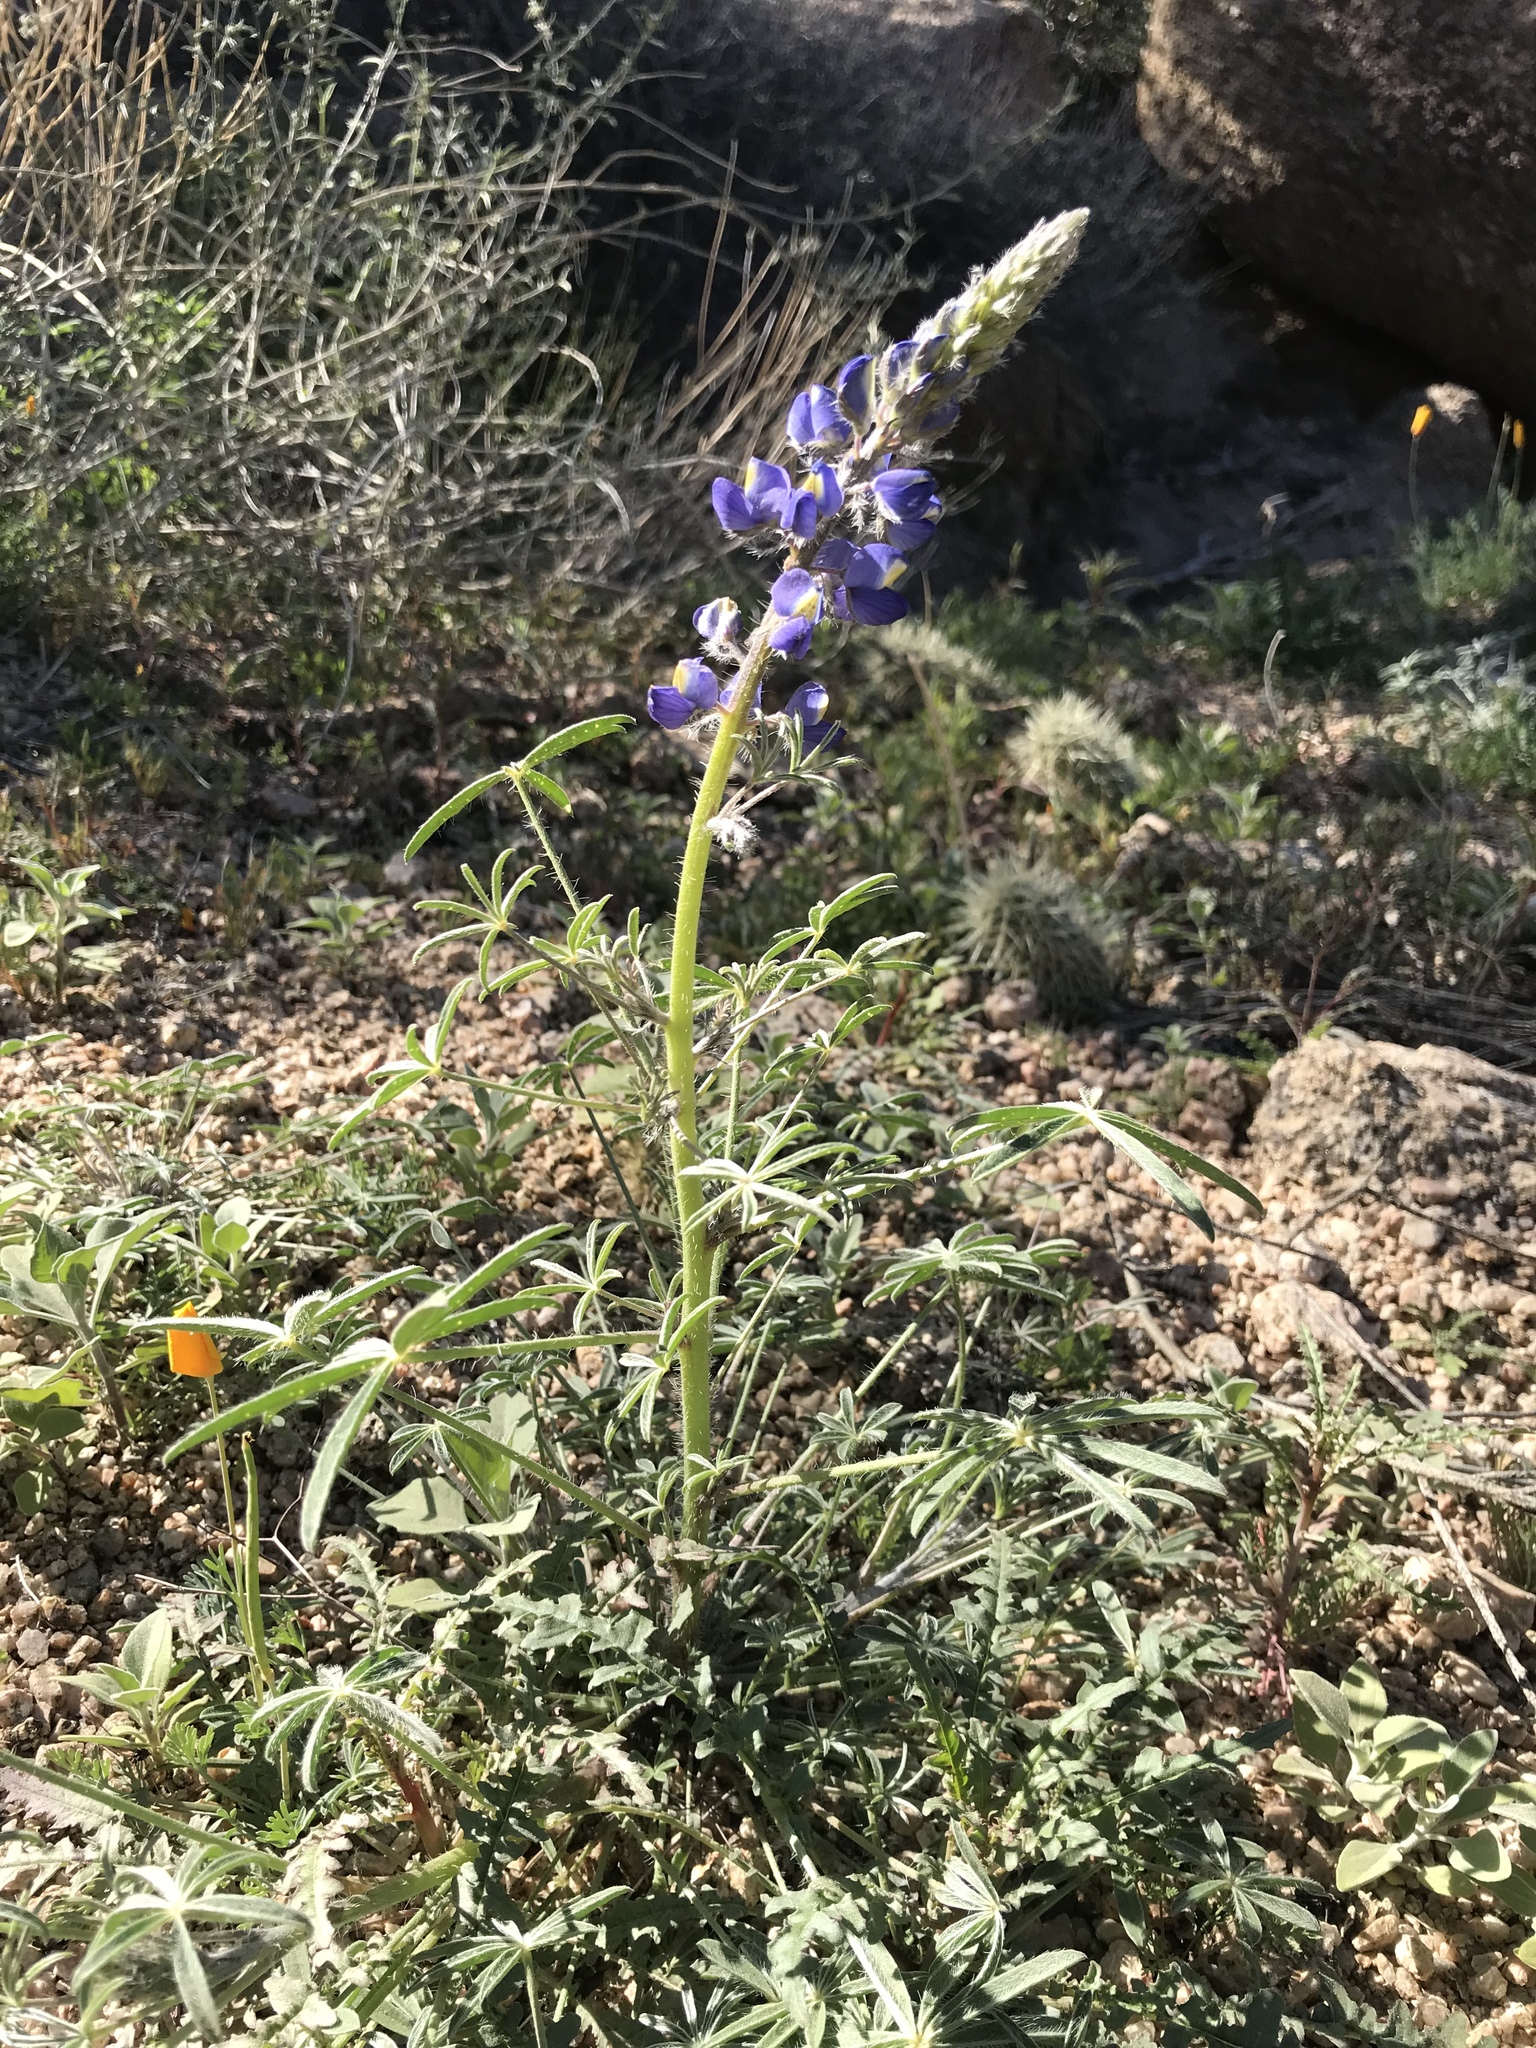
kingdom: Plantae
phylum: Tracheophyta
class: Magnoliopsida
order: Fabales
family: Fabaceae
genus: Lupinus
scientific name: Lupinus sparsiflorus
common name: Coulter's lupine
